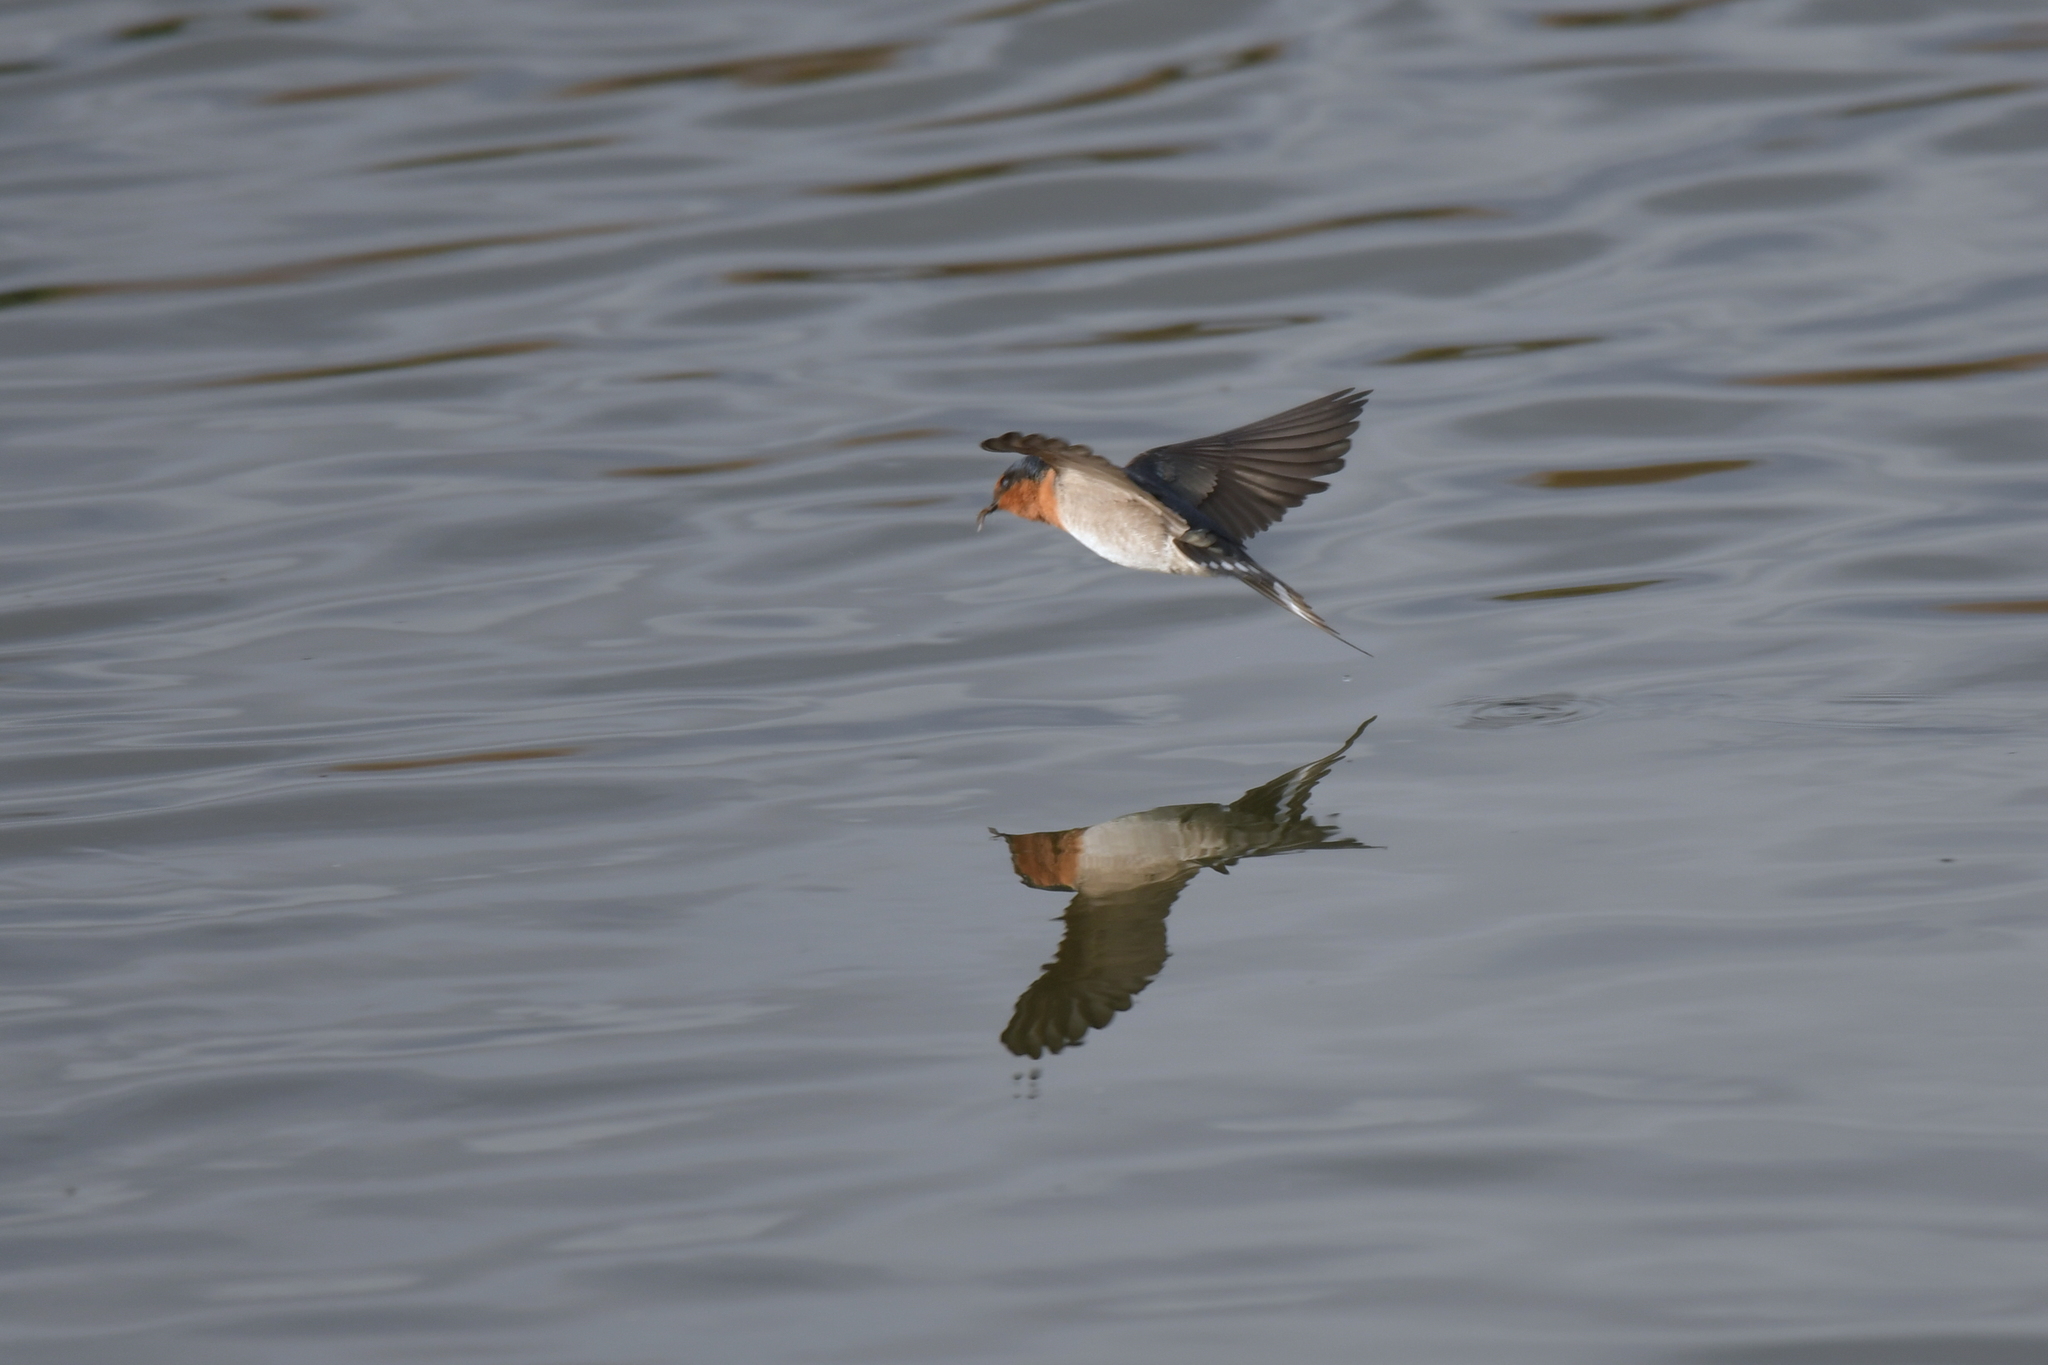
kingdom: Animalia
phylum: Chordata
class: Aves
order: Passeriformes
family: Hirundinidae
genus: Hirundo
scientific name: Hirundo neoxena
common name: Welcome swallow
